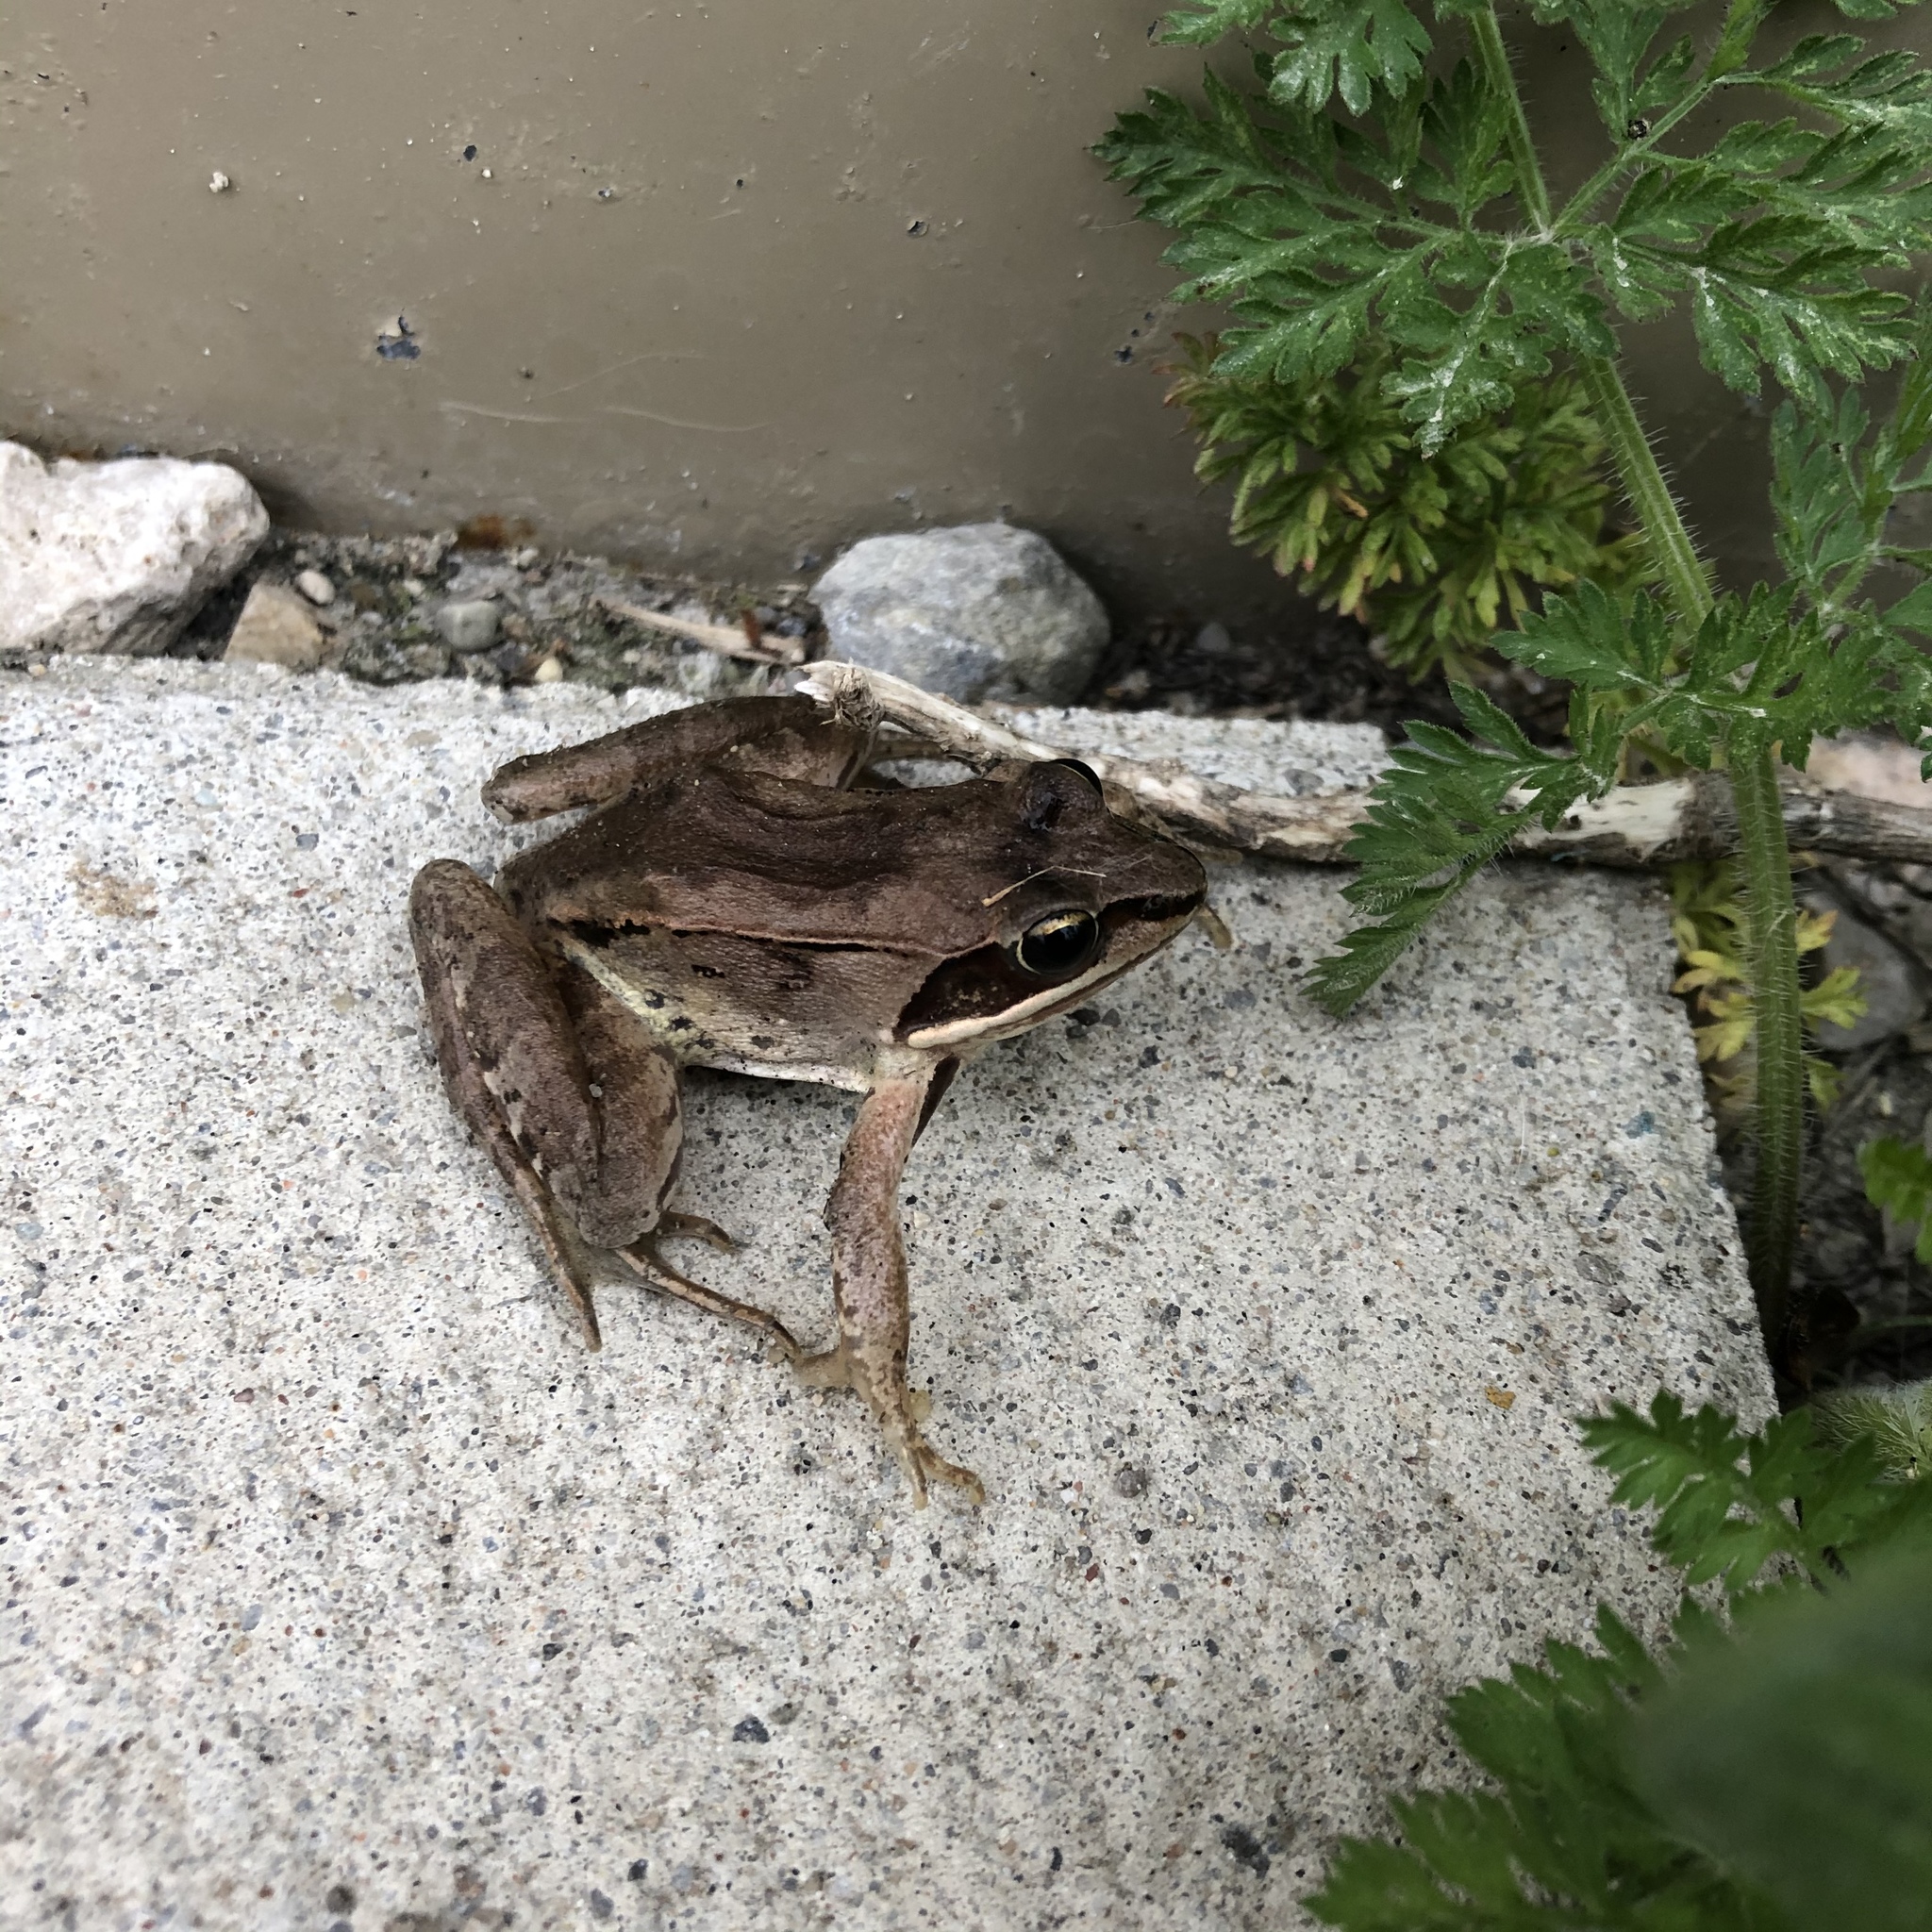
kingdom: Animalia
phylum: Chordata
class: Amphibia
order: Anura
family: Ranidae
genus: Lithobates
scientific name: Lithobates sylvaticus
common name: Wood frog
